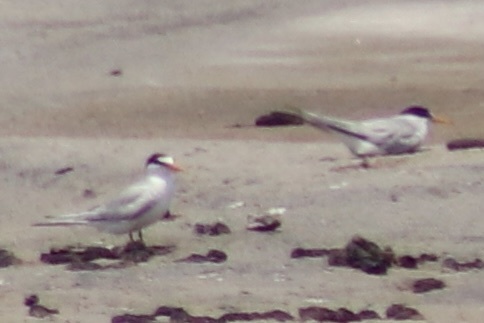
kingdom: Animalia
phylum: Chordata
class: Aves
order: Charadriiformes
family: Laridae
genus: Sternula
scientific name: Sternula antillarum
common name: Least tern
